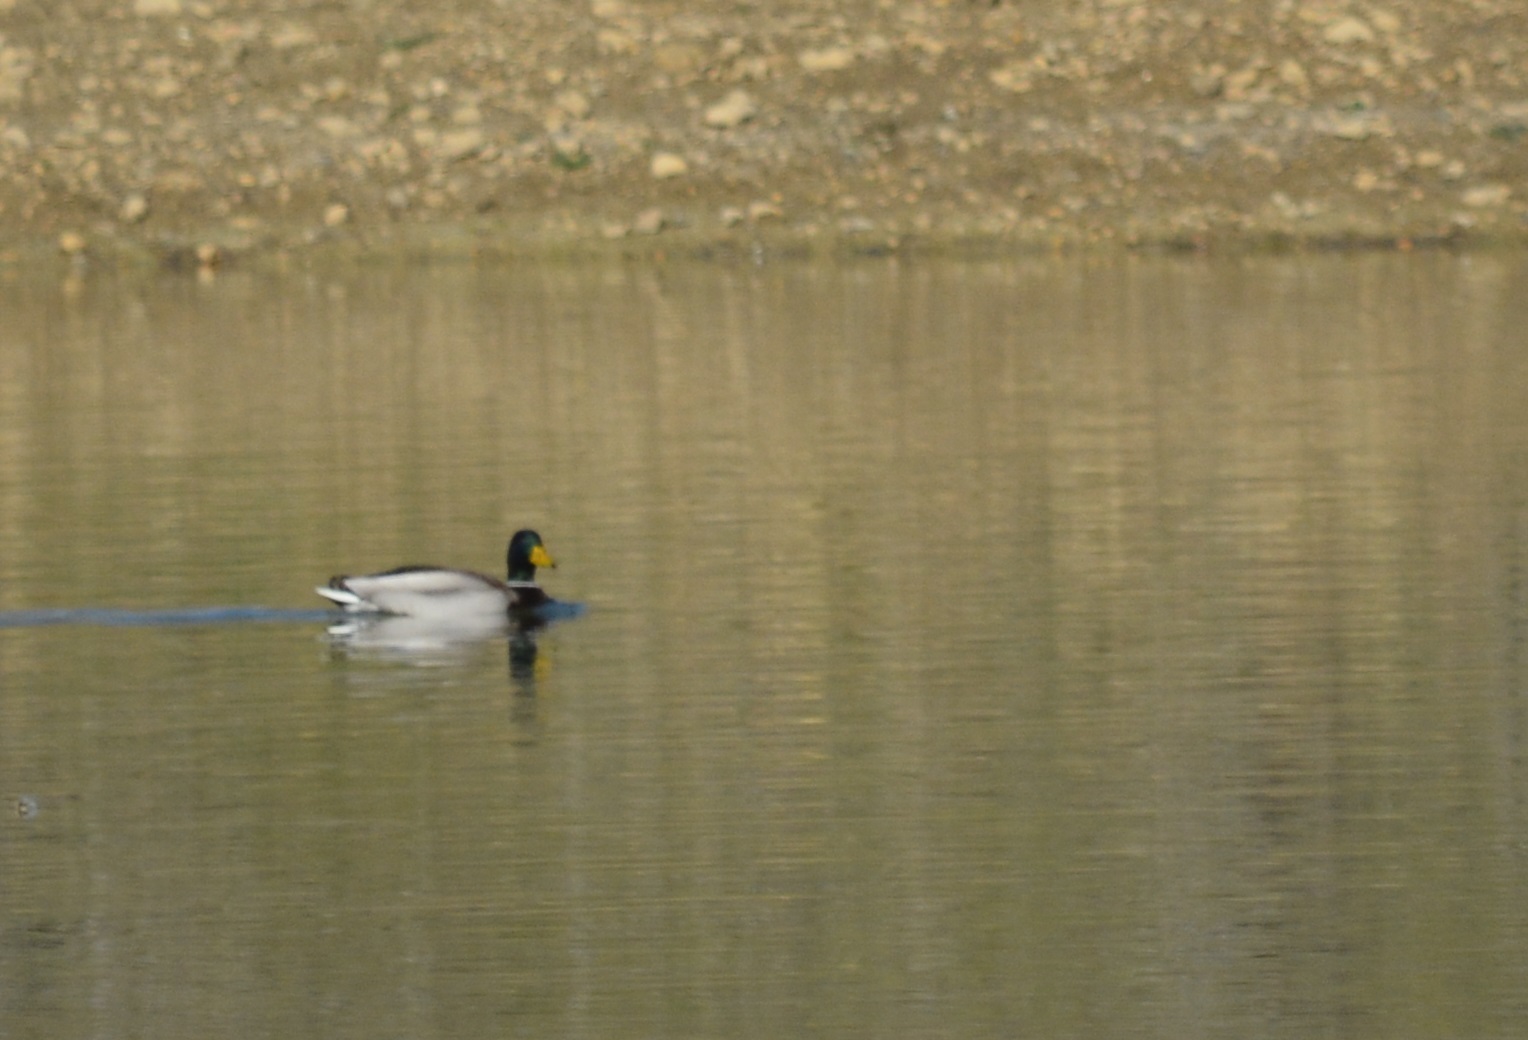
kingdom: Animalia
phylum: Chordata
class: Aves
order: Anseriformes
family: Anatidae
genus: Anas
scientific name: Anas platyrhynchos
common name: Mallard
